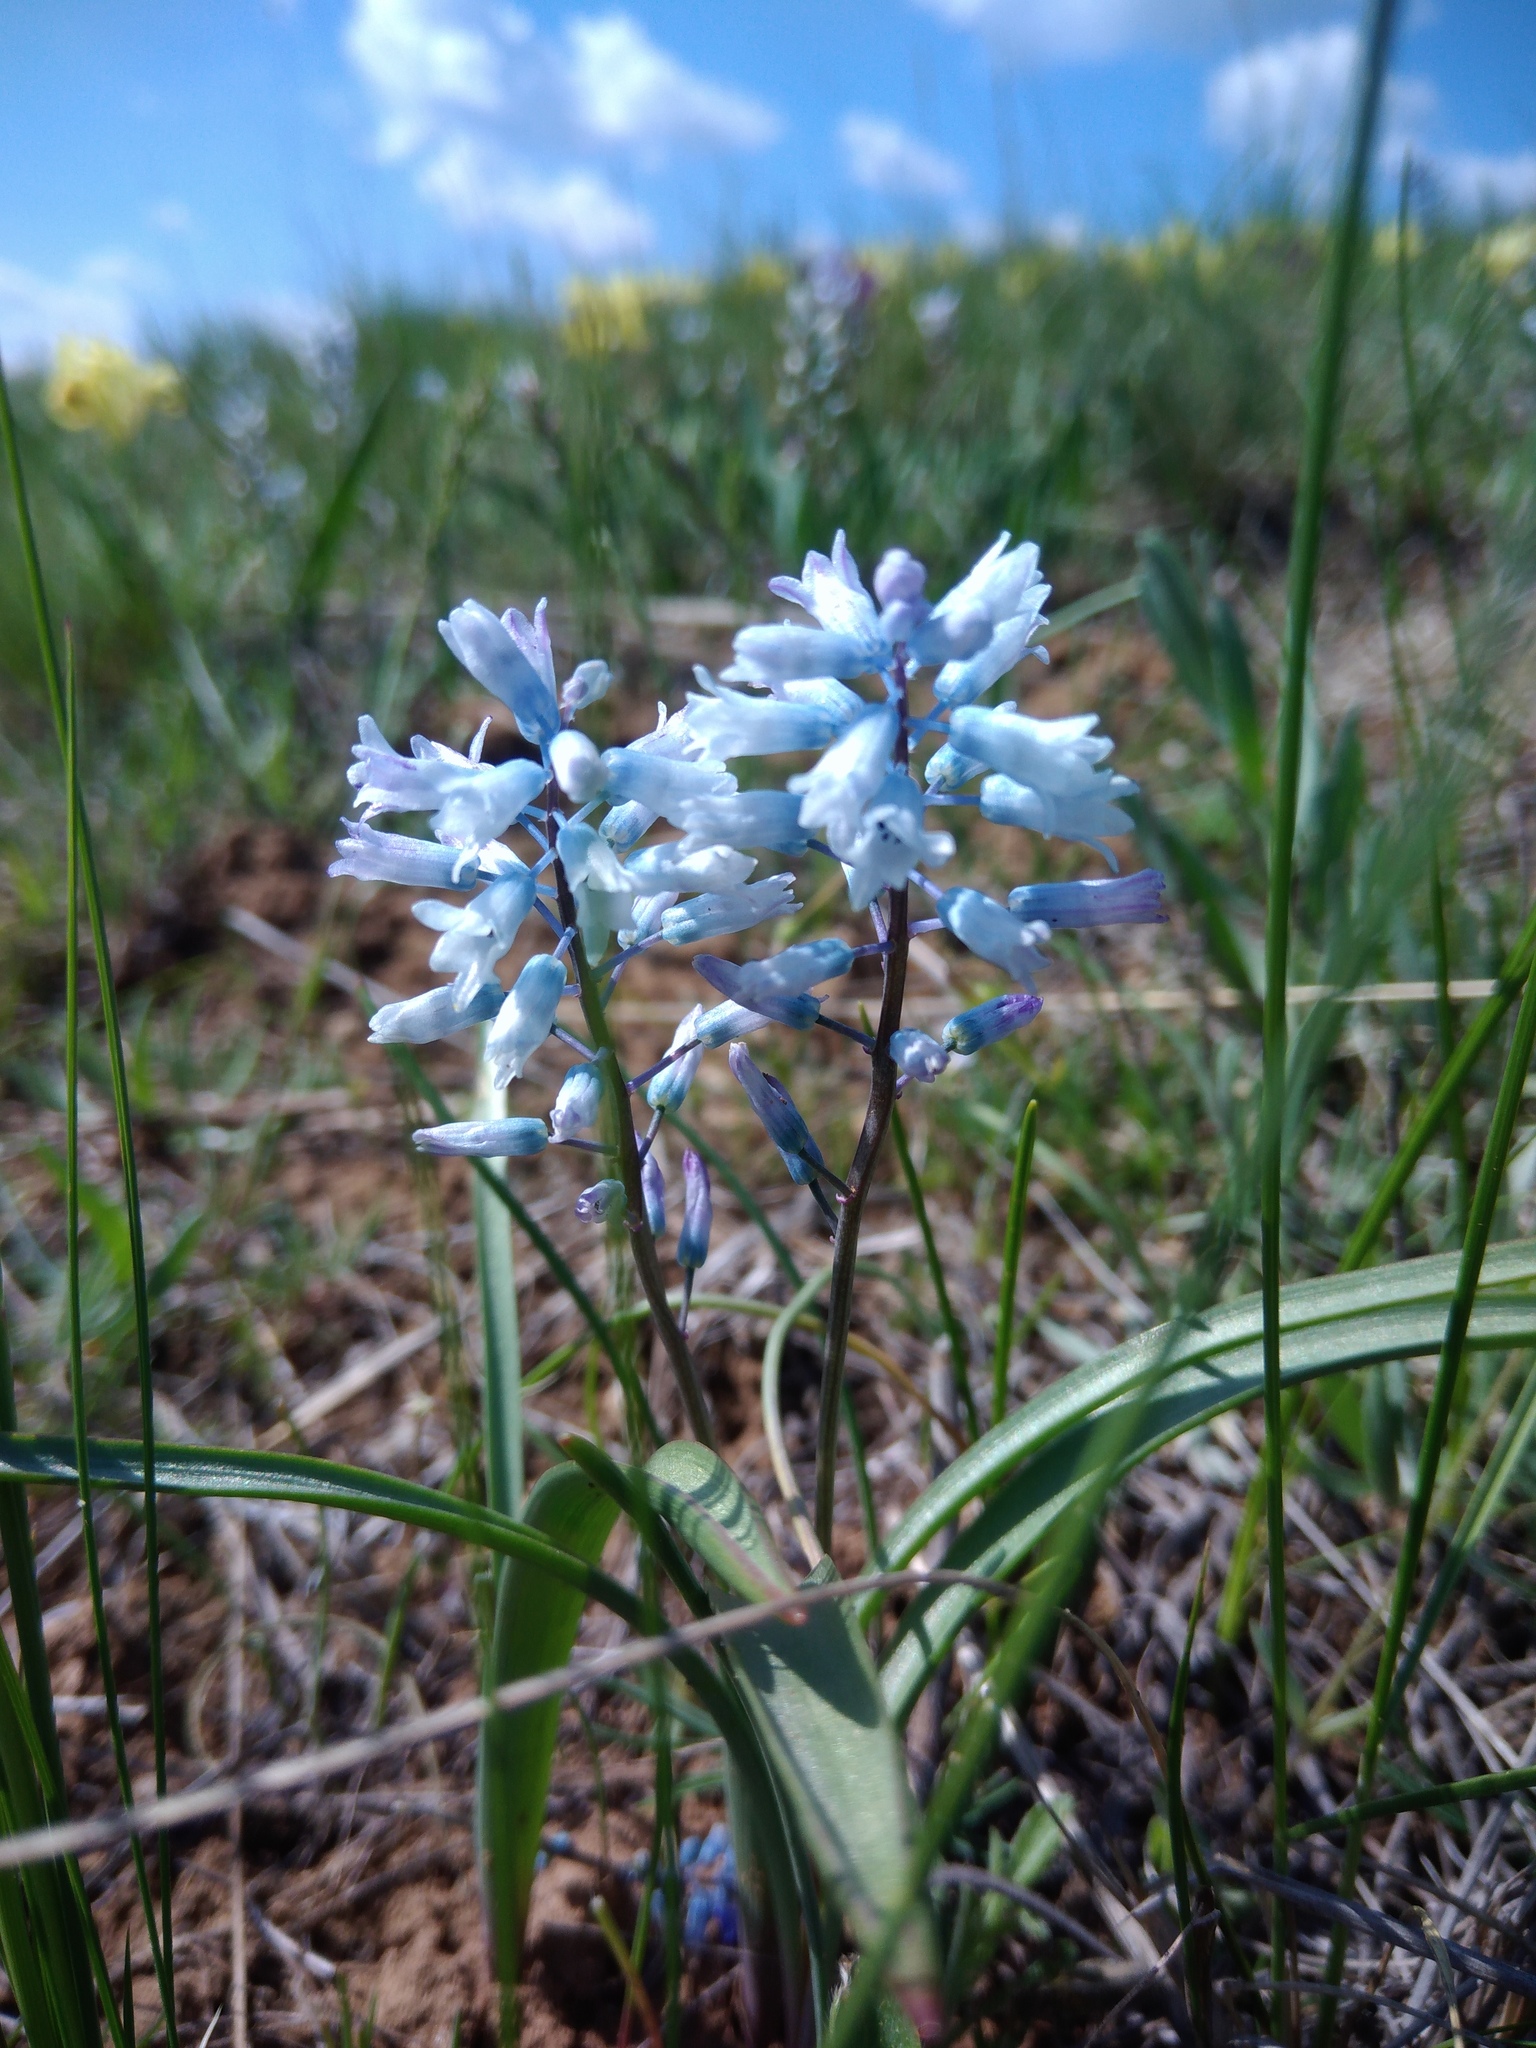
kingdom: Plantae
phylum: Tracheophyta
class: Liliopsida
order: Asparagales
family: Asparagaceae
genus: Hyacinthella
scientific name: Hyacinthella leucophaea
